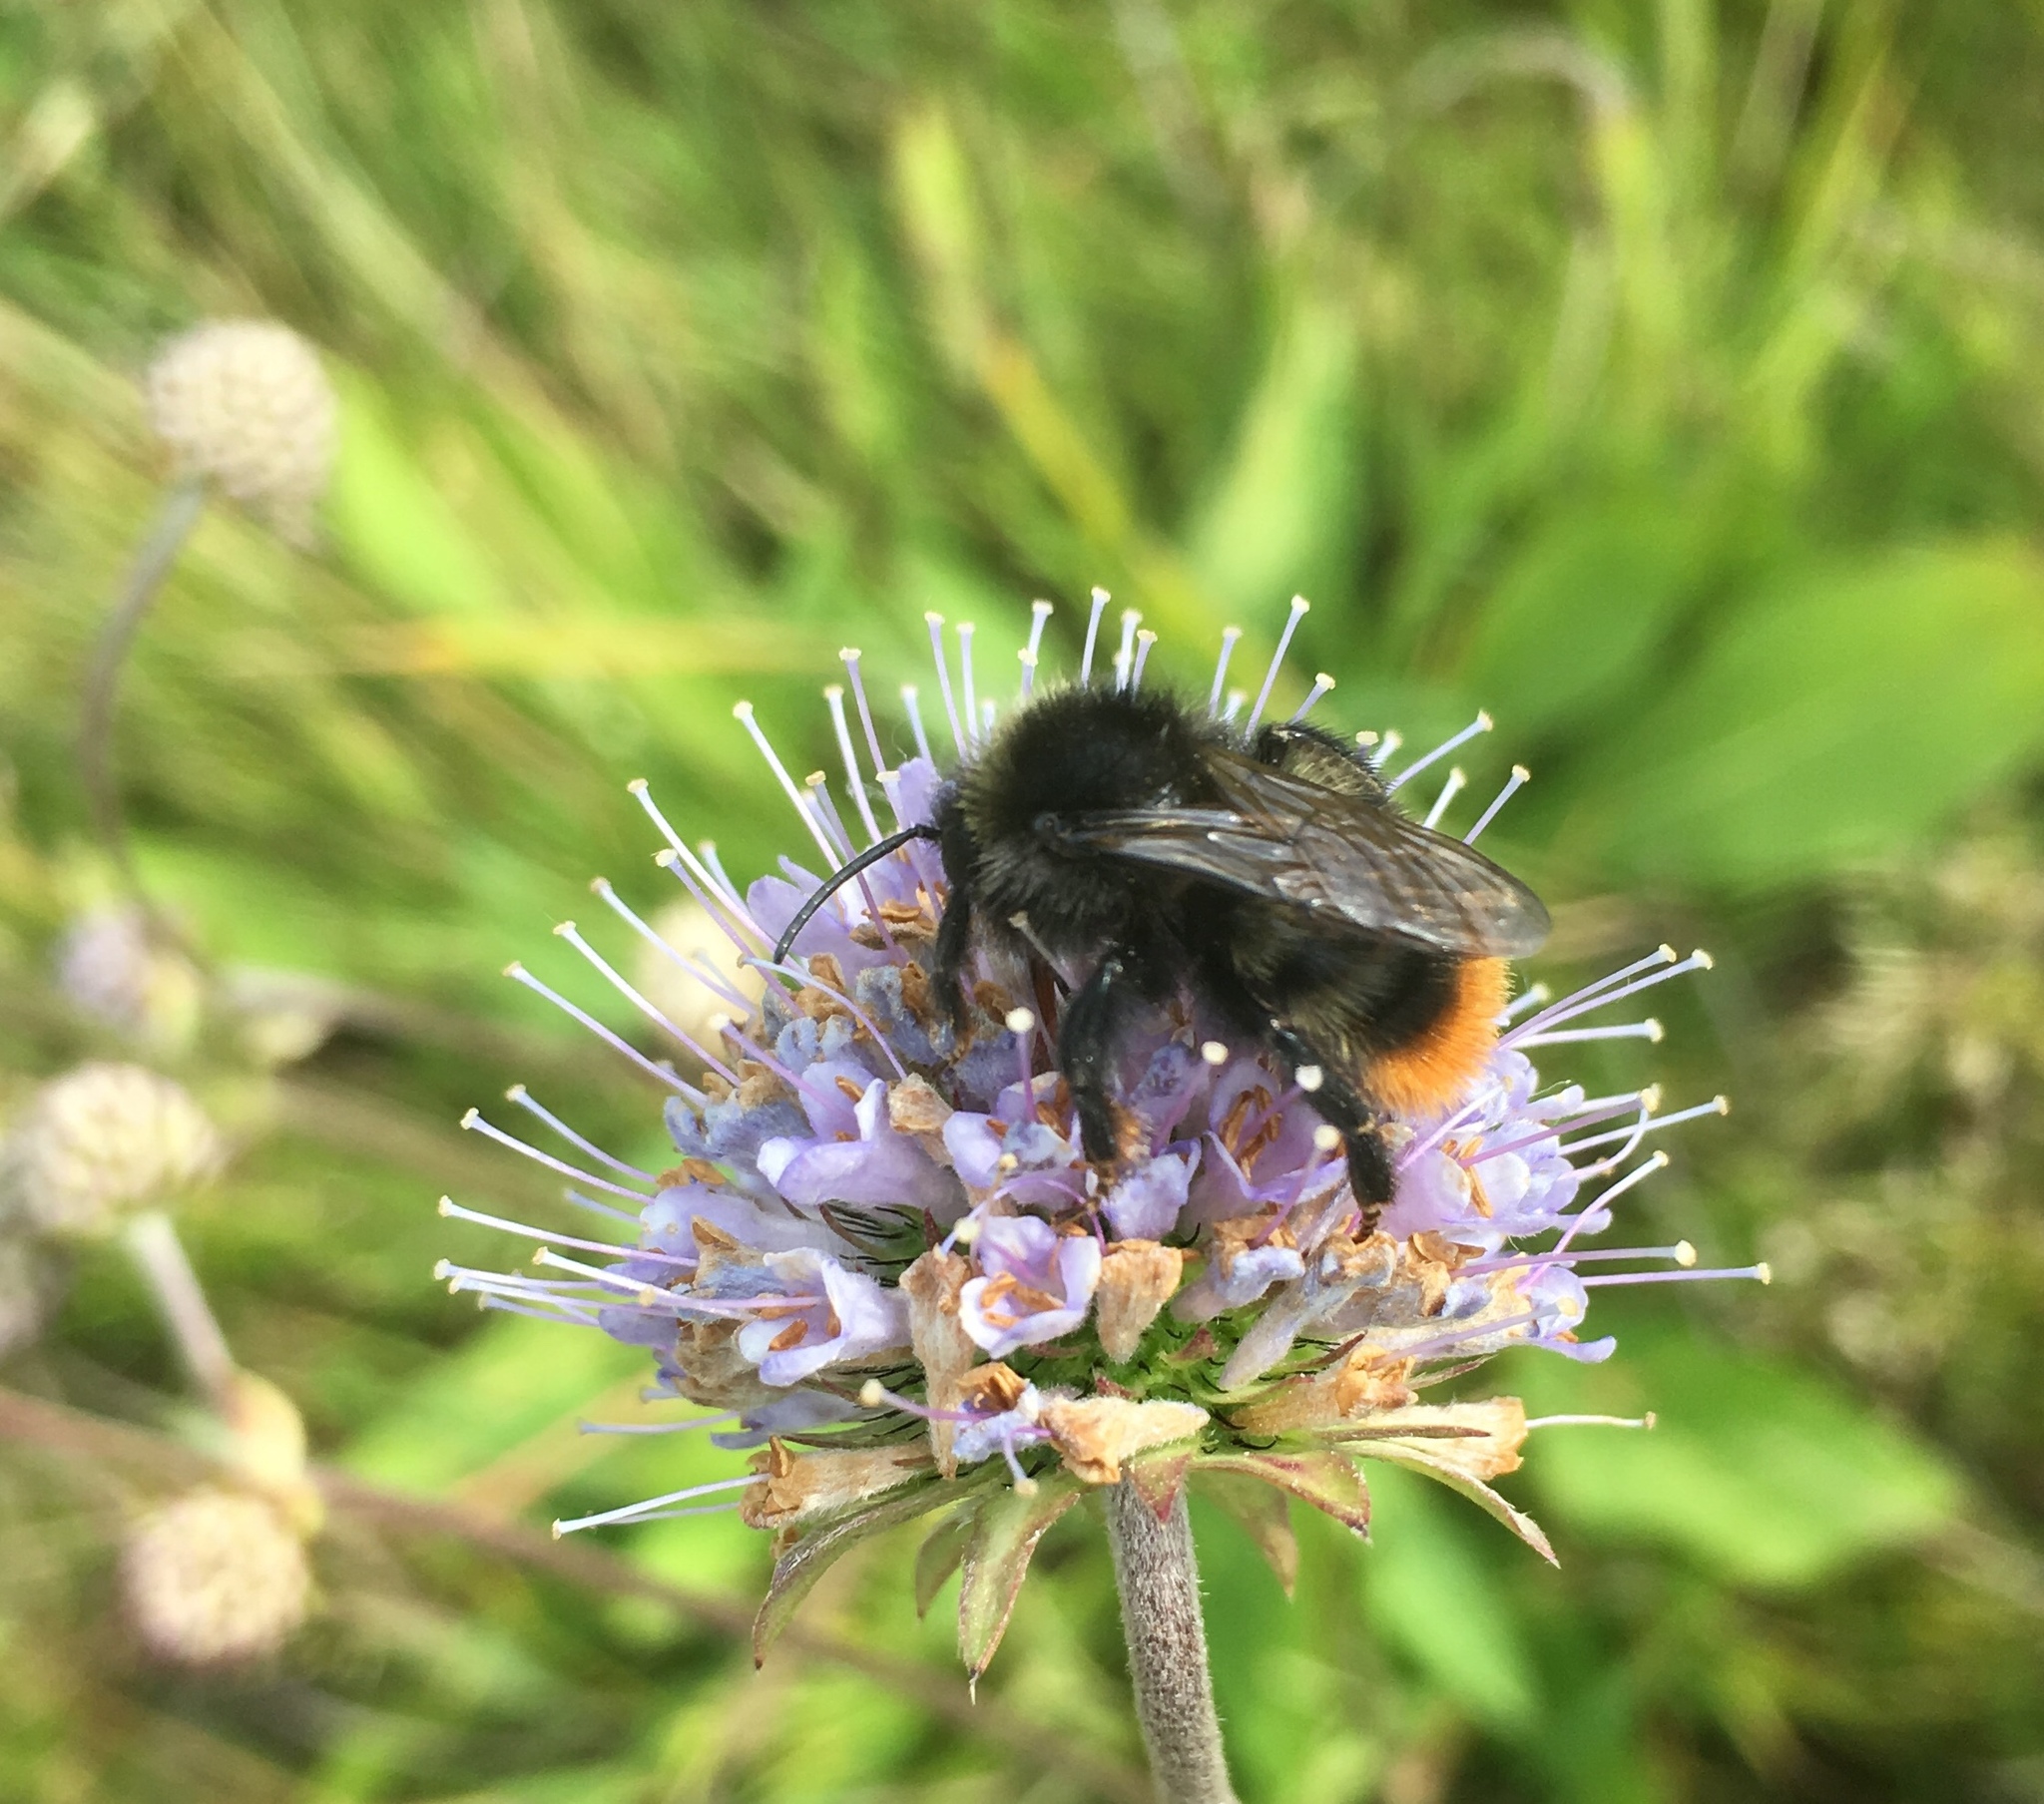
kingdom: Animalia
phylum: Arthropoda
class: Insecta
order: Hymenoptera
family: Apidae
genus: Bombus
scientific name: Bombus lapidarius
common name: Large red-tailed humble-bee
